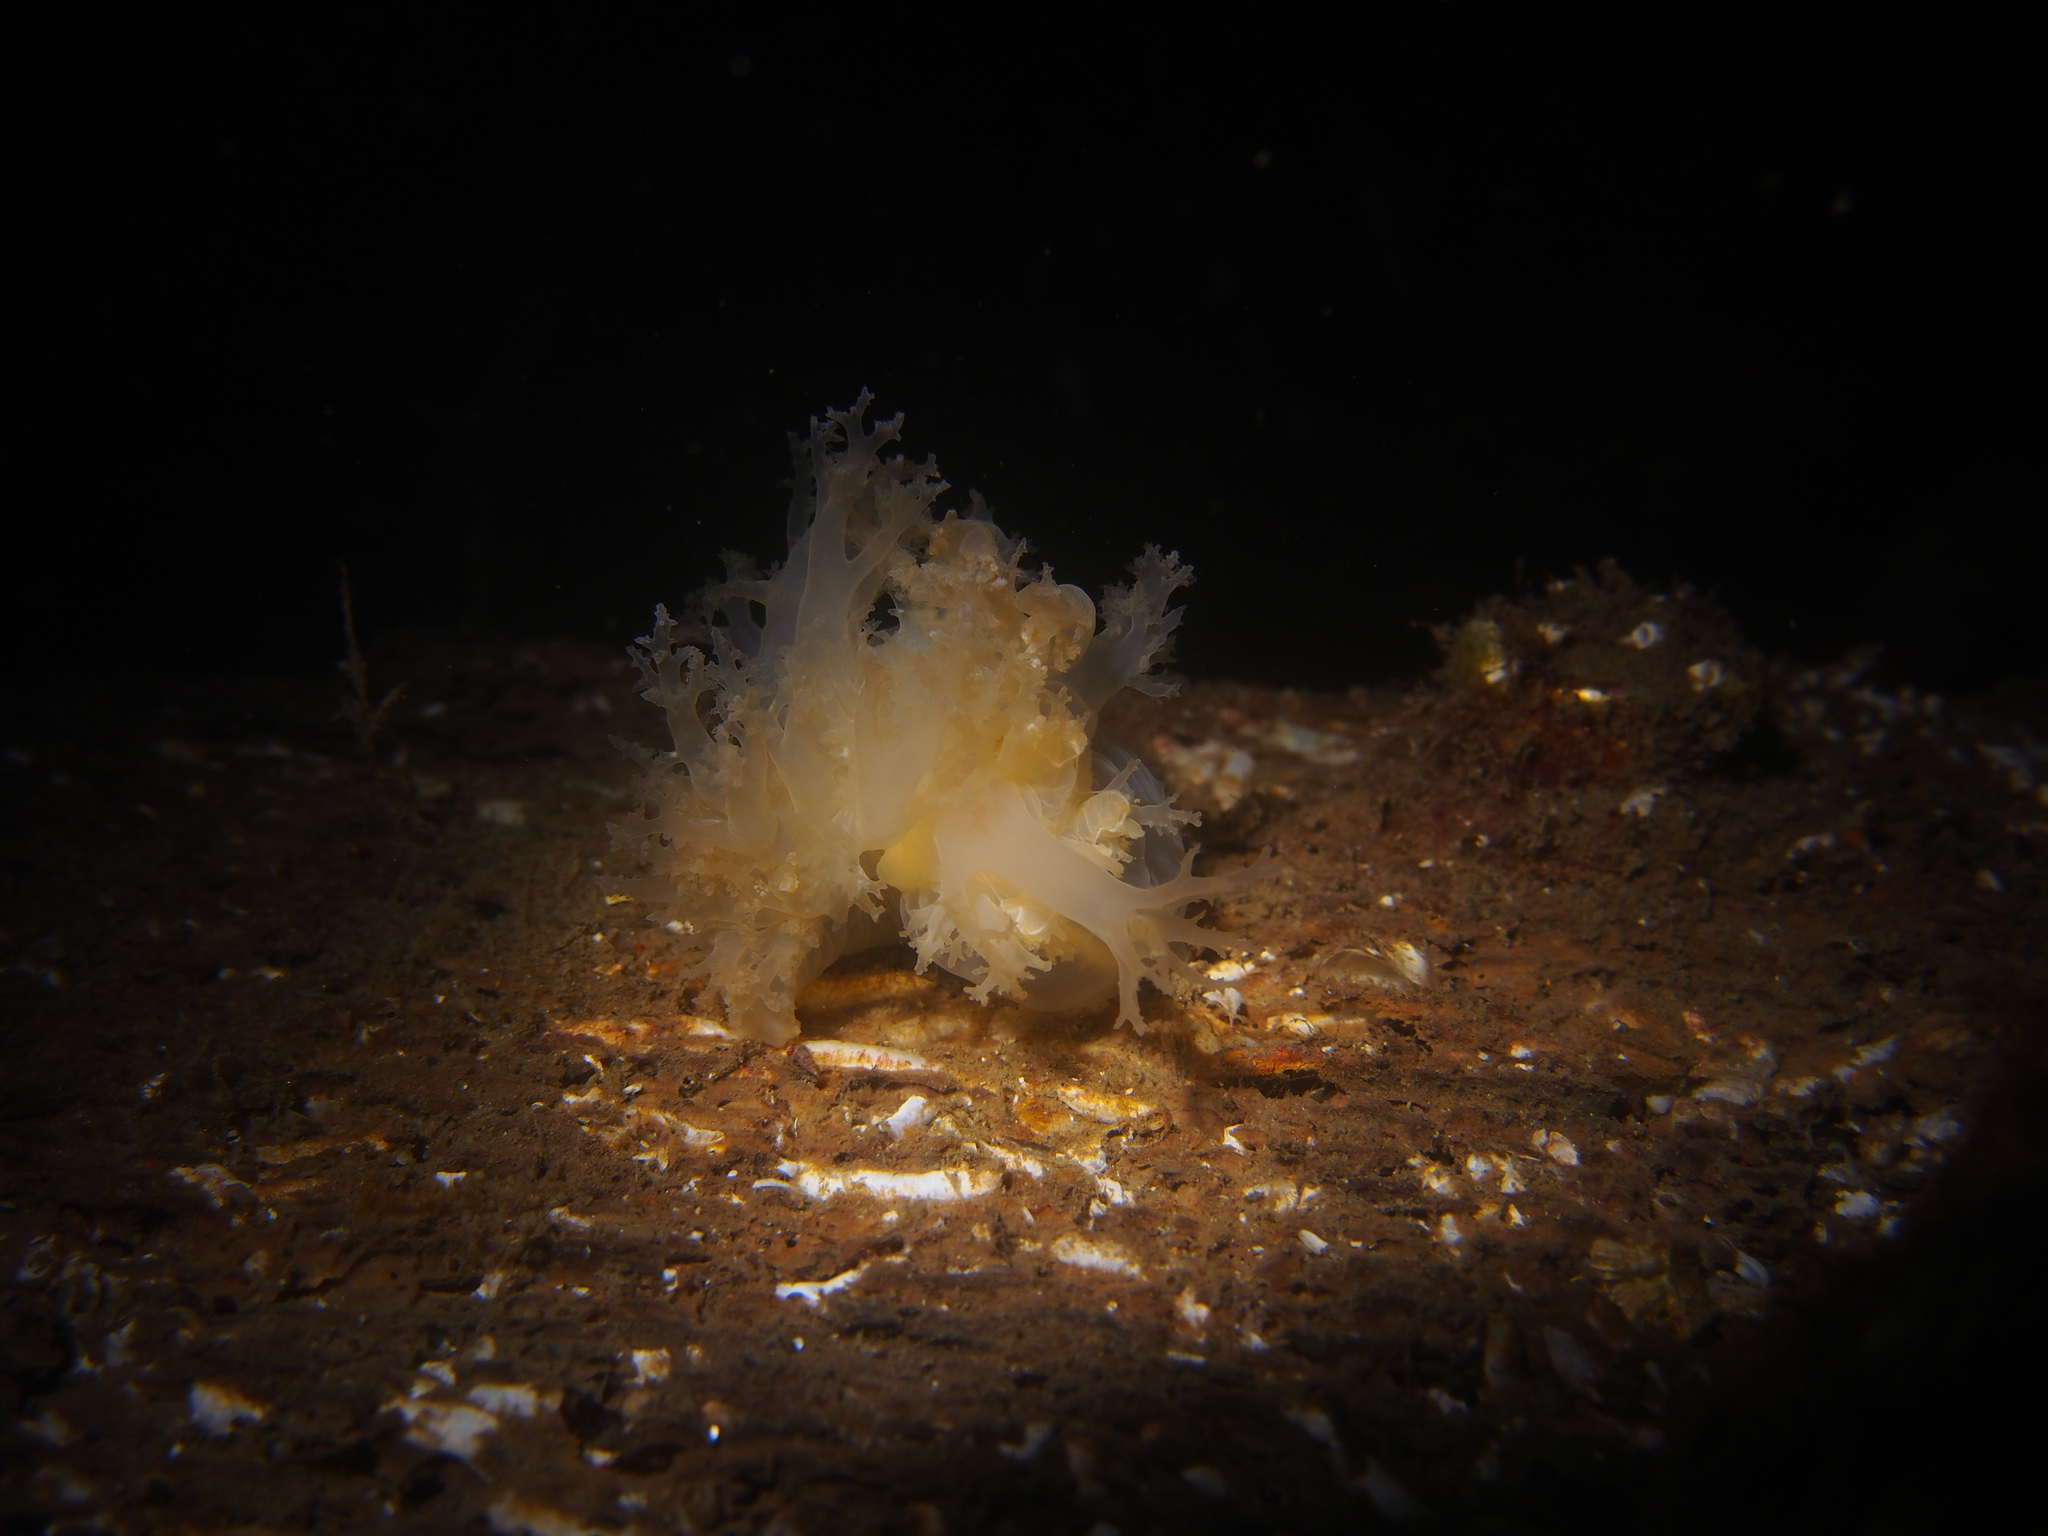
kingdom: Animalia
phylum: Mollusca
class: Gastropoda
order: Nudibranchia
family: Dendronotidae
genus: Dendronotus
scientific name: Dendronotus lacteus
